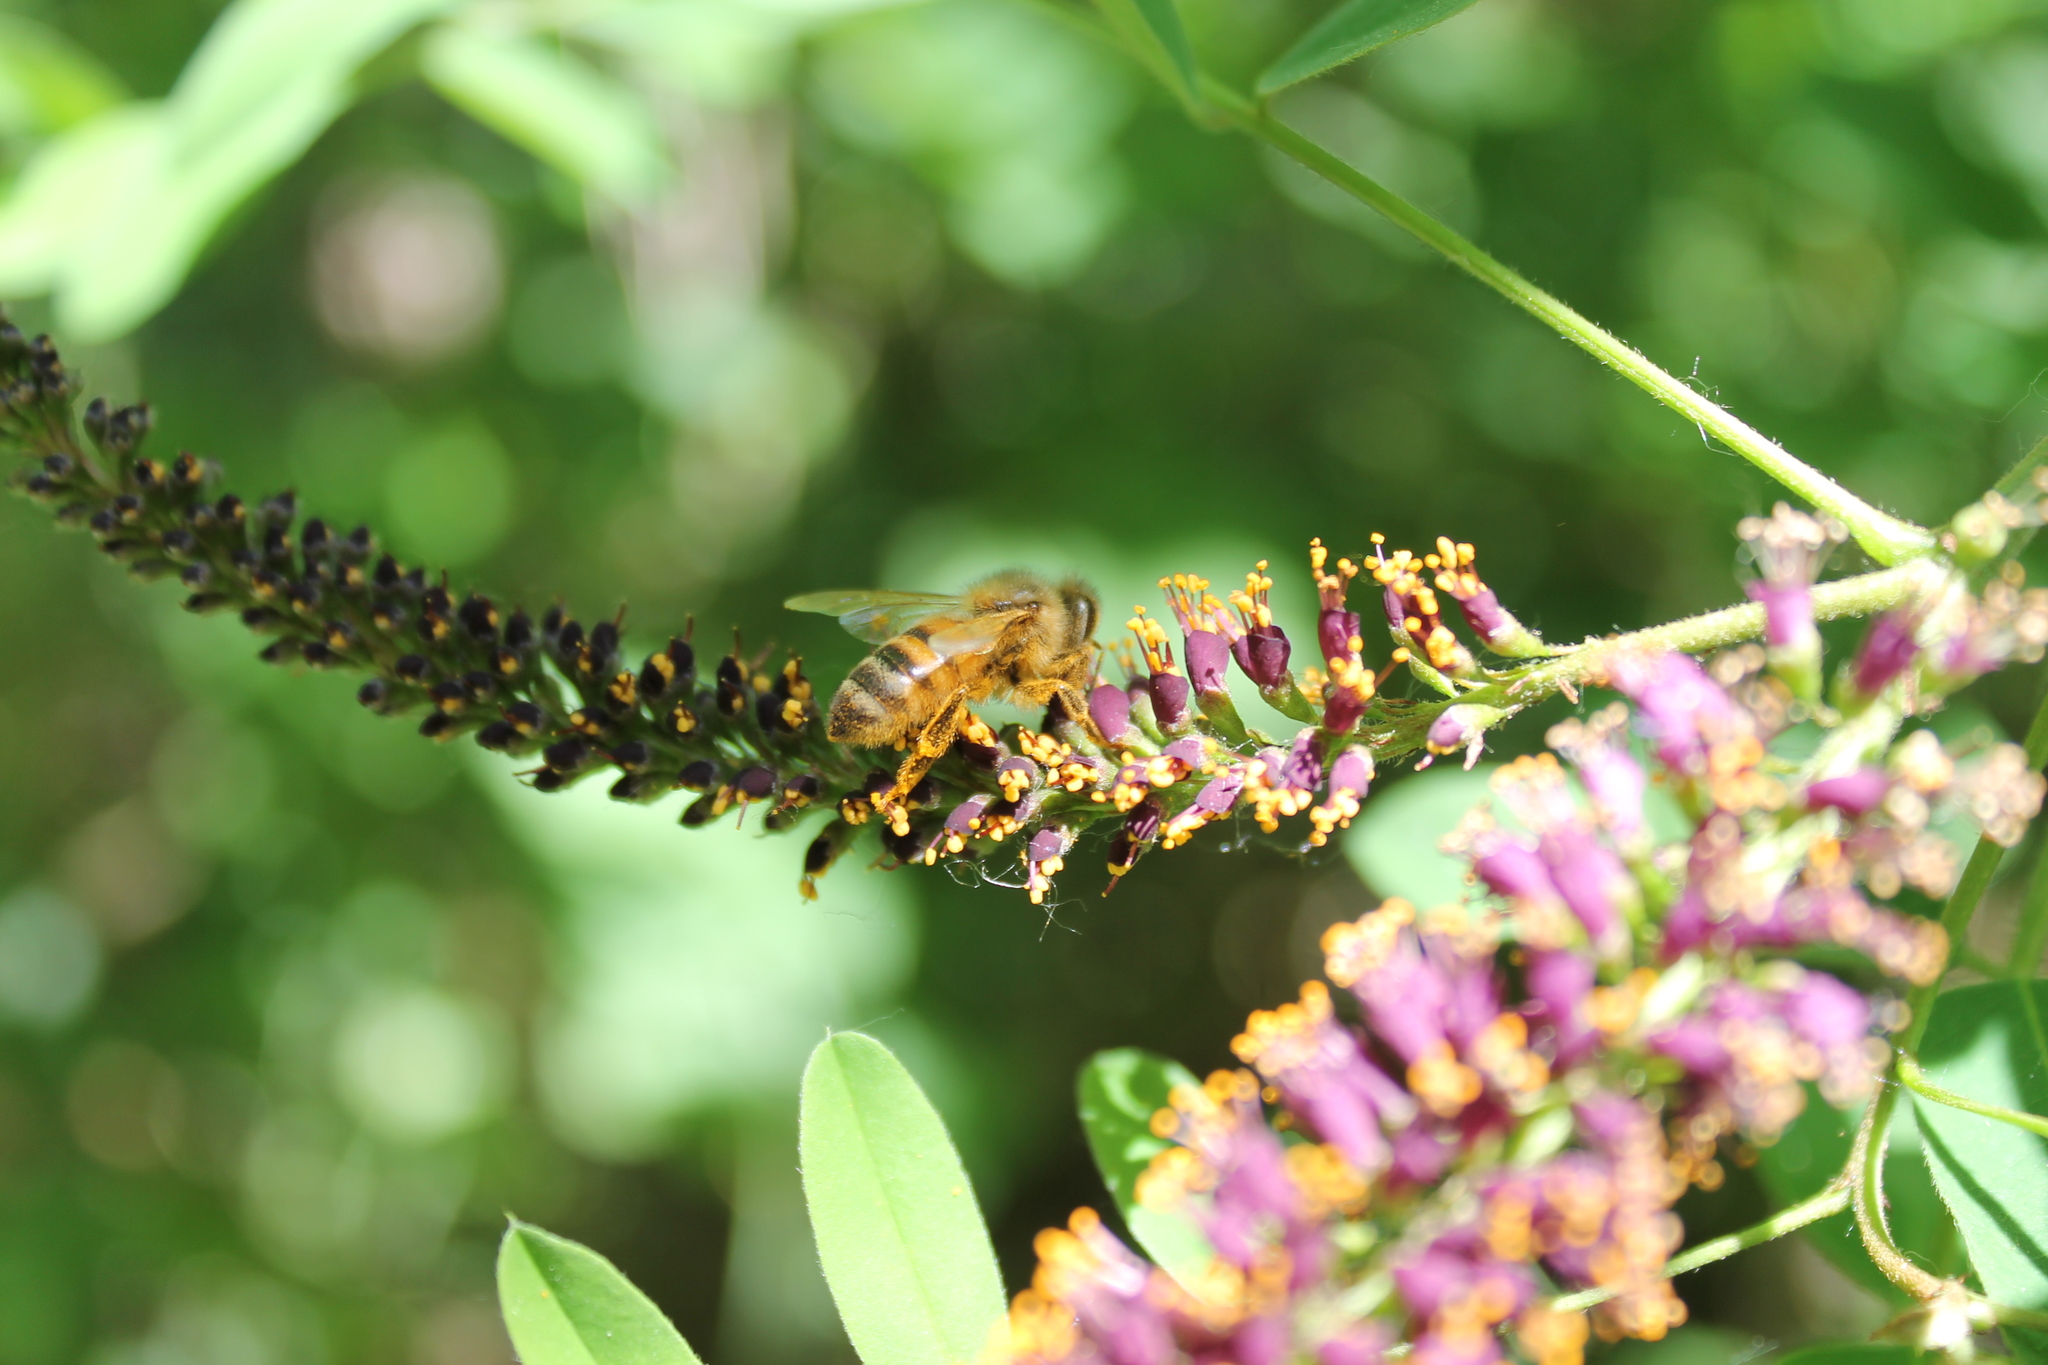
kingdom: Animalia
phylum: Arthropoda
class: Insecta
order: Hymenoptera
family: Apidae
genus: Apis
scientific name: Apis mellifera
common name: Honey bee
